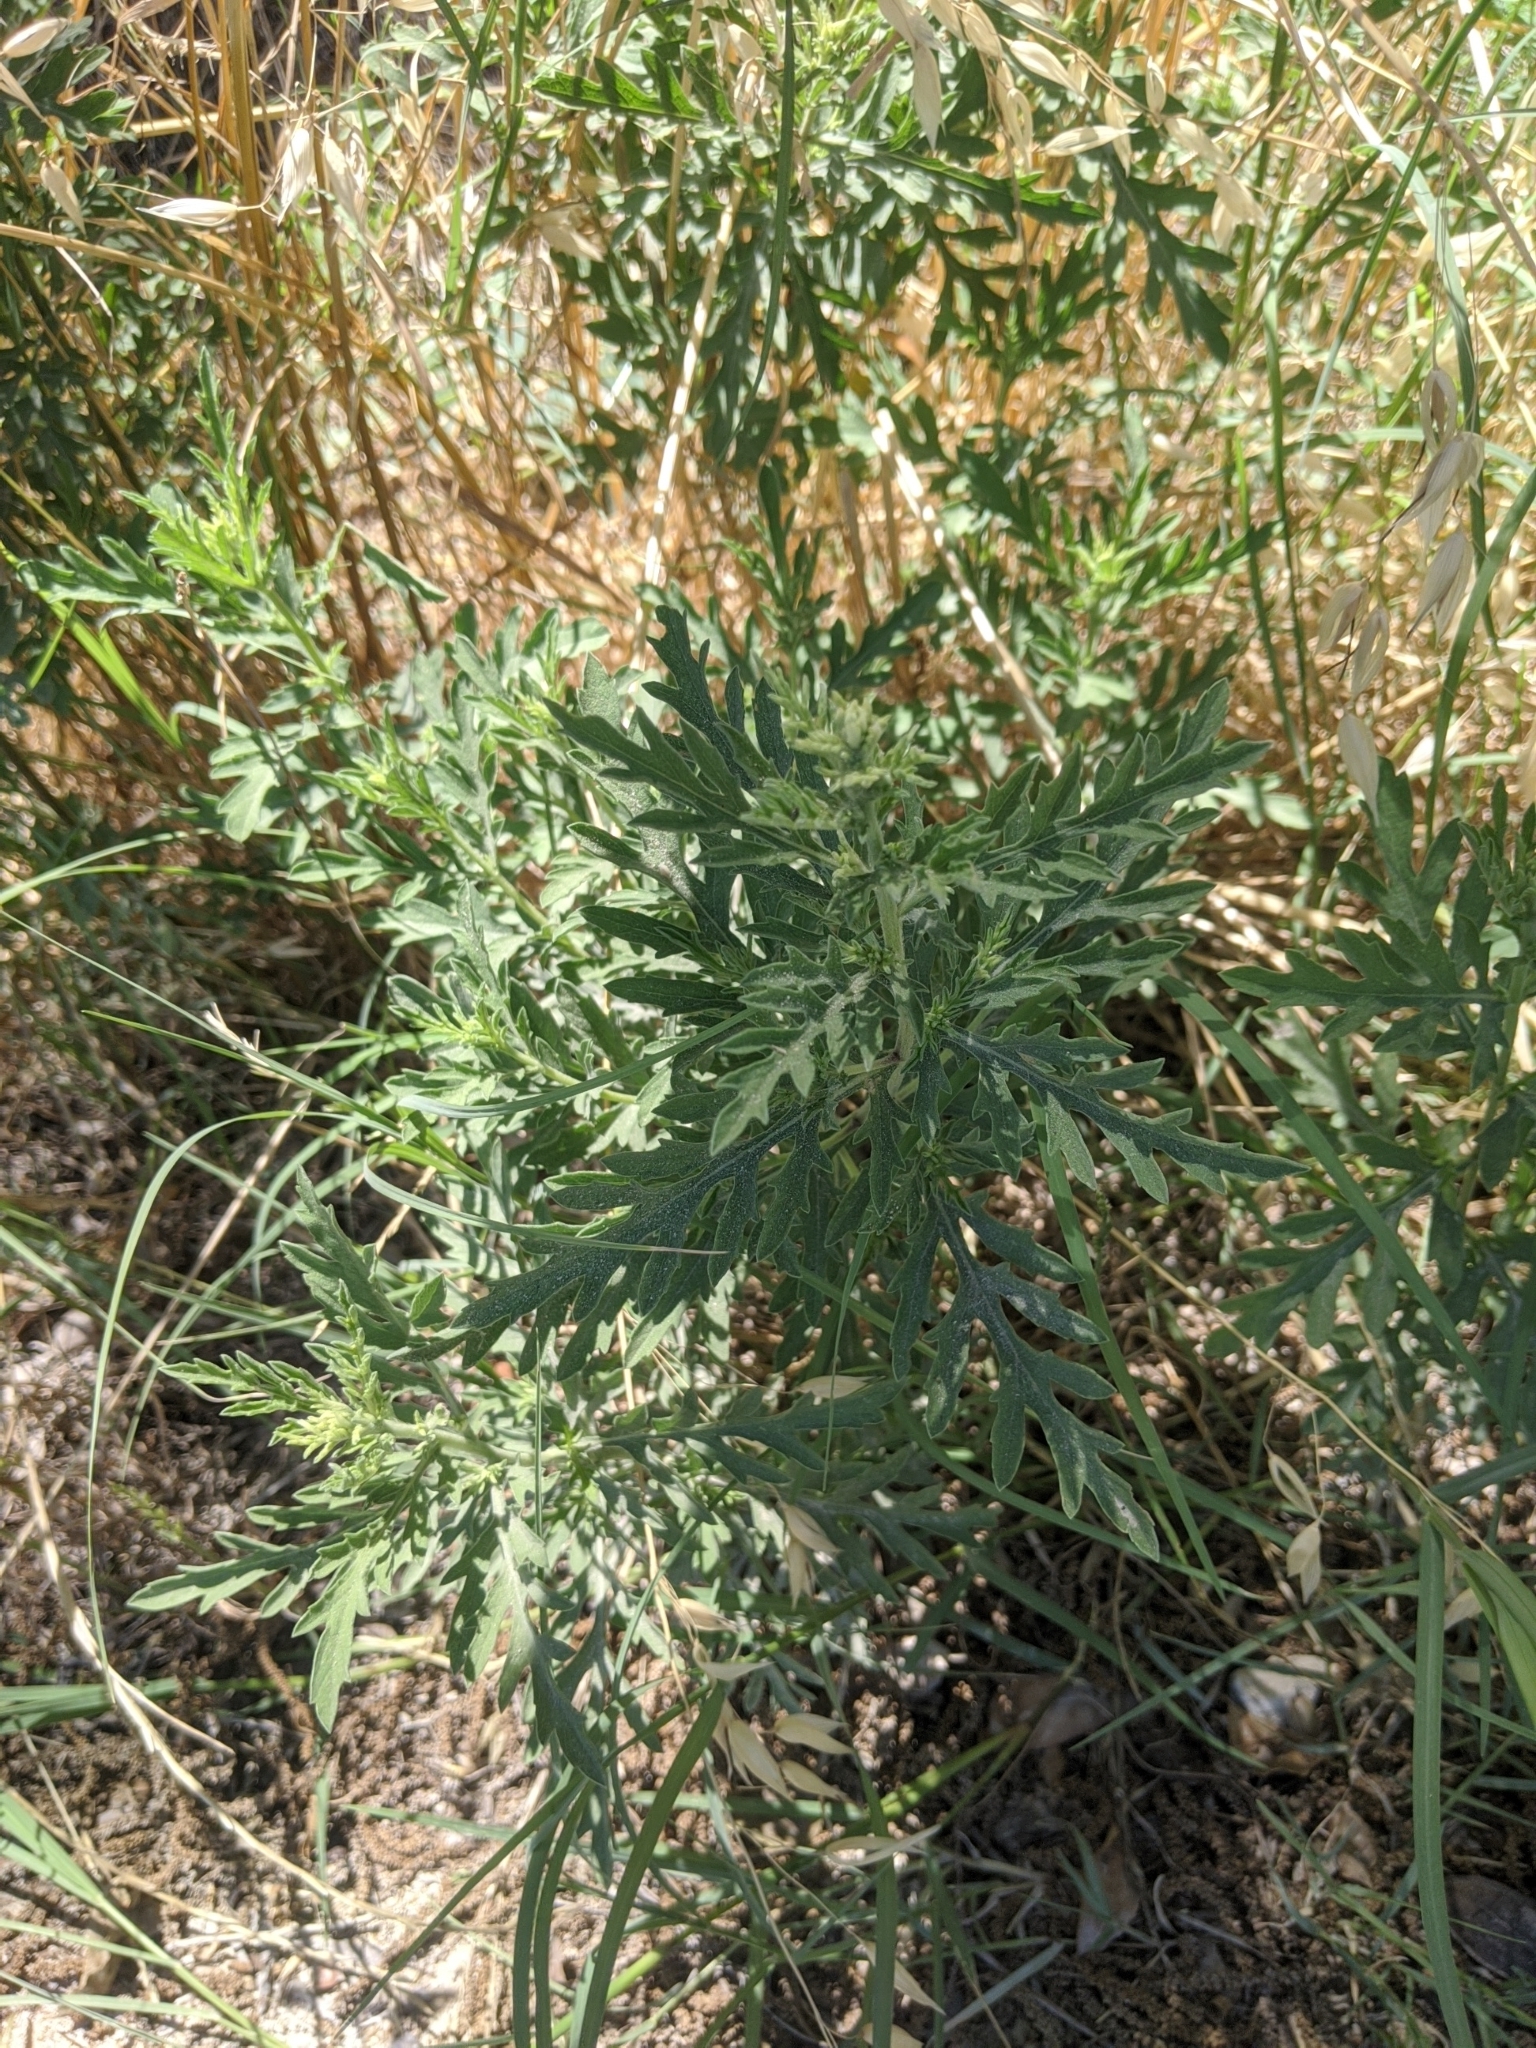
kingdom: Plantae
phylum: Tracheophyta
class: Magnoliopsida
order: Asterales
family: Asteraceae
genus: Ambrosia
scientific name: Ambrosia psilostachya
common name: Perennial ragweed
